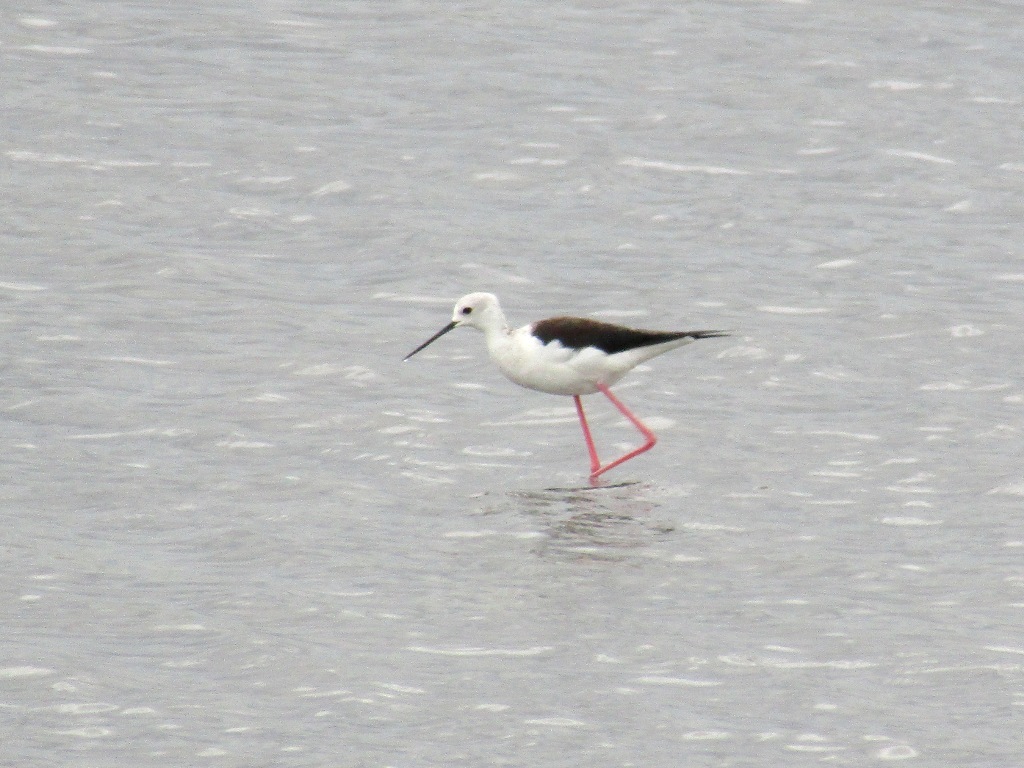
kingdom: Animalia
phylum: Chordata
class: Aves
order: Charadriiformes
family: Recurvirostridae
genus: Himantopus
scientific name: Himantopus himantopus
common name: Black-winged stilt
